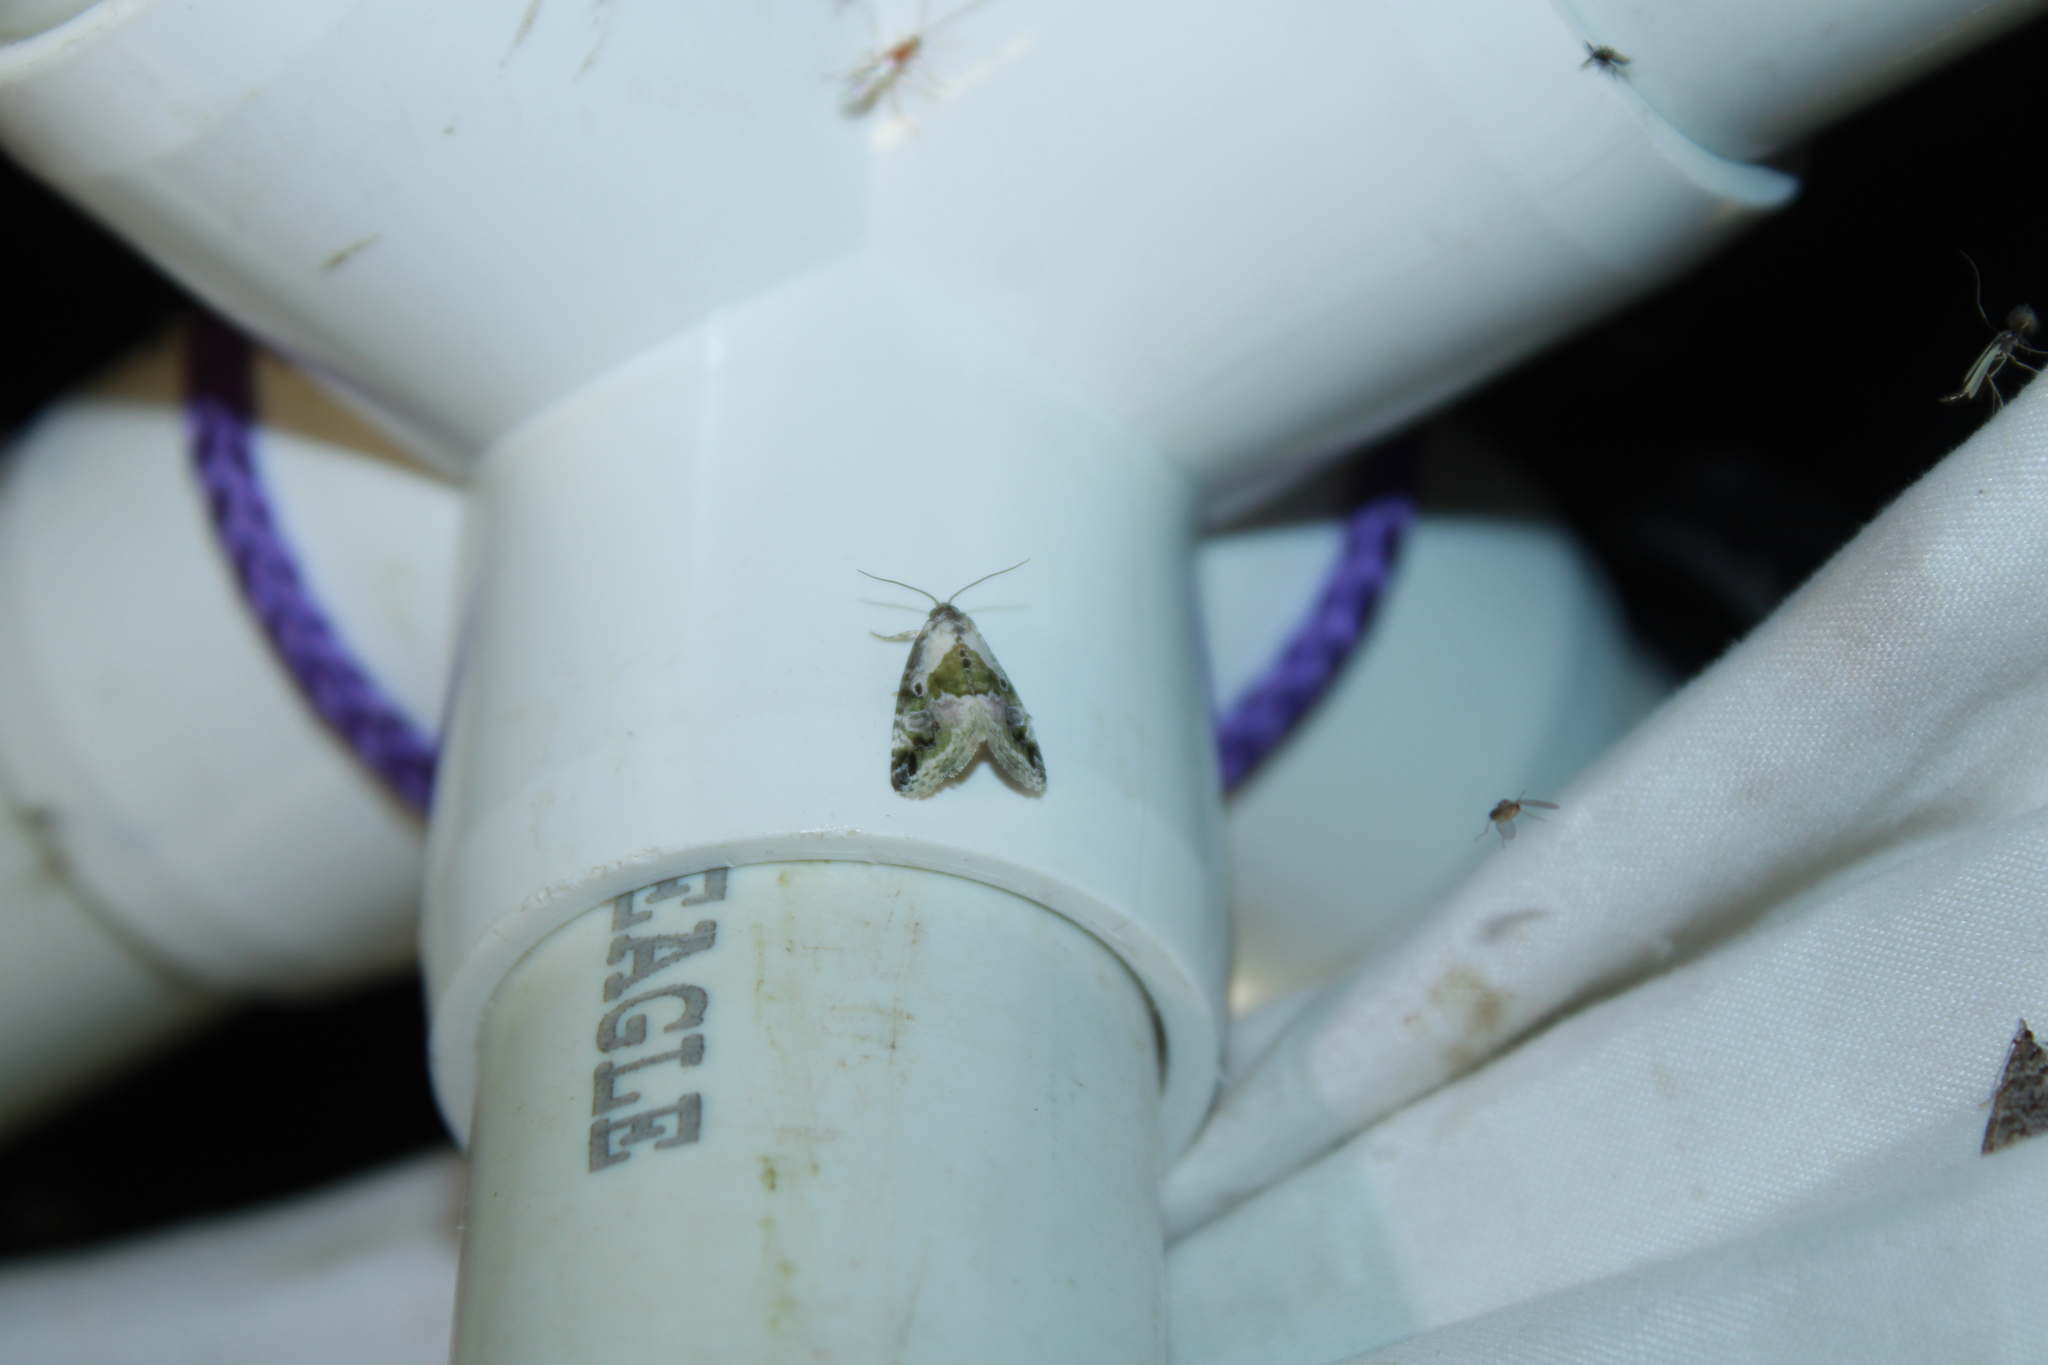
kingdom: Animalia
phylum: Arthropoda
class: Insecta
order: Lepidoptera
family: Noctuidae
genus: Maliattha
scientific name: Maliattha synochitis
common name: Black-dotted glyph
